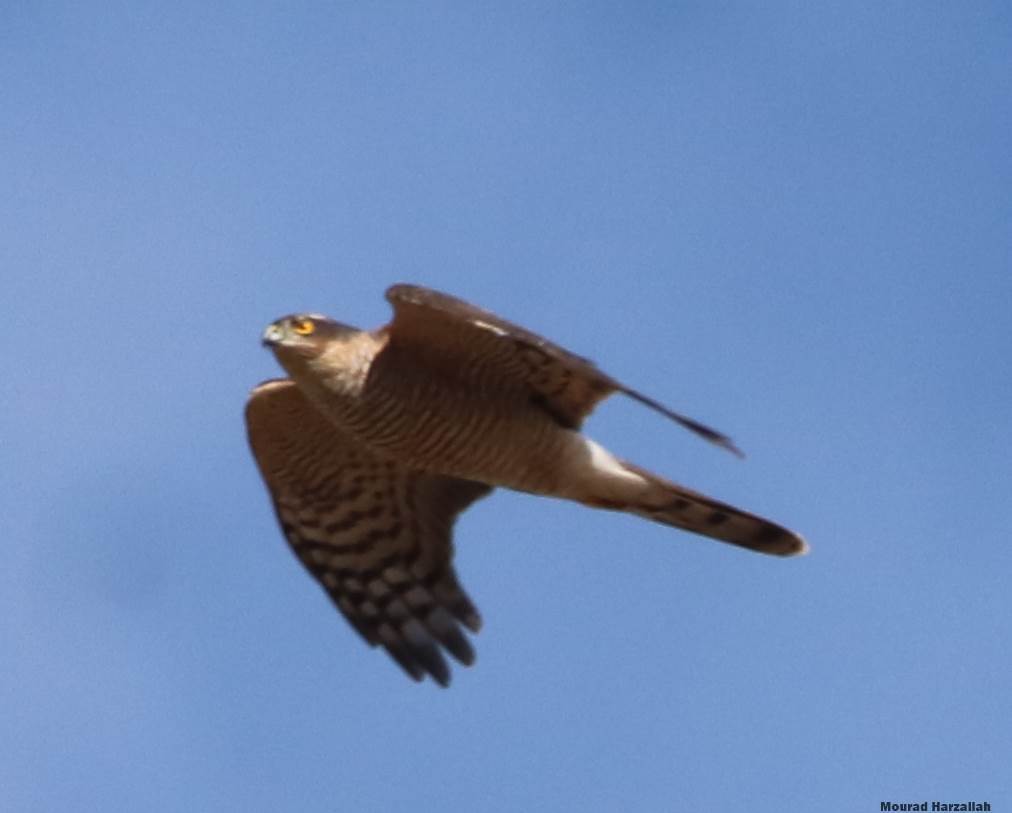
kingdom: Animalia
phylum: Chordata
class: Aves
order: Accipitriformes
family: Accipitridae
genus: Accipiter
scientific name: Accipiter nisus
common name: Eurasian sparrowhawk
